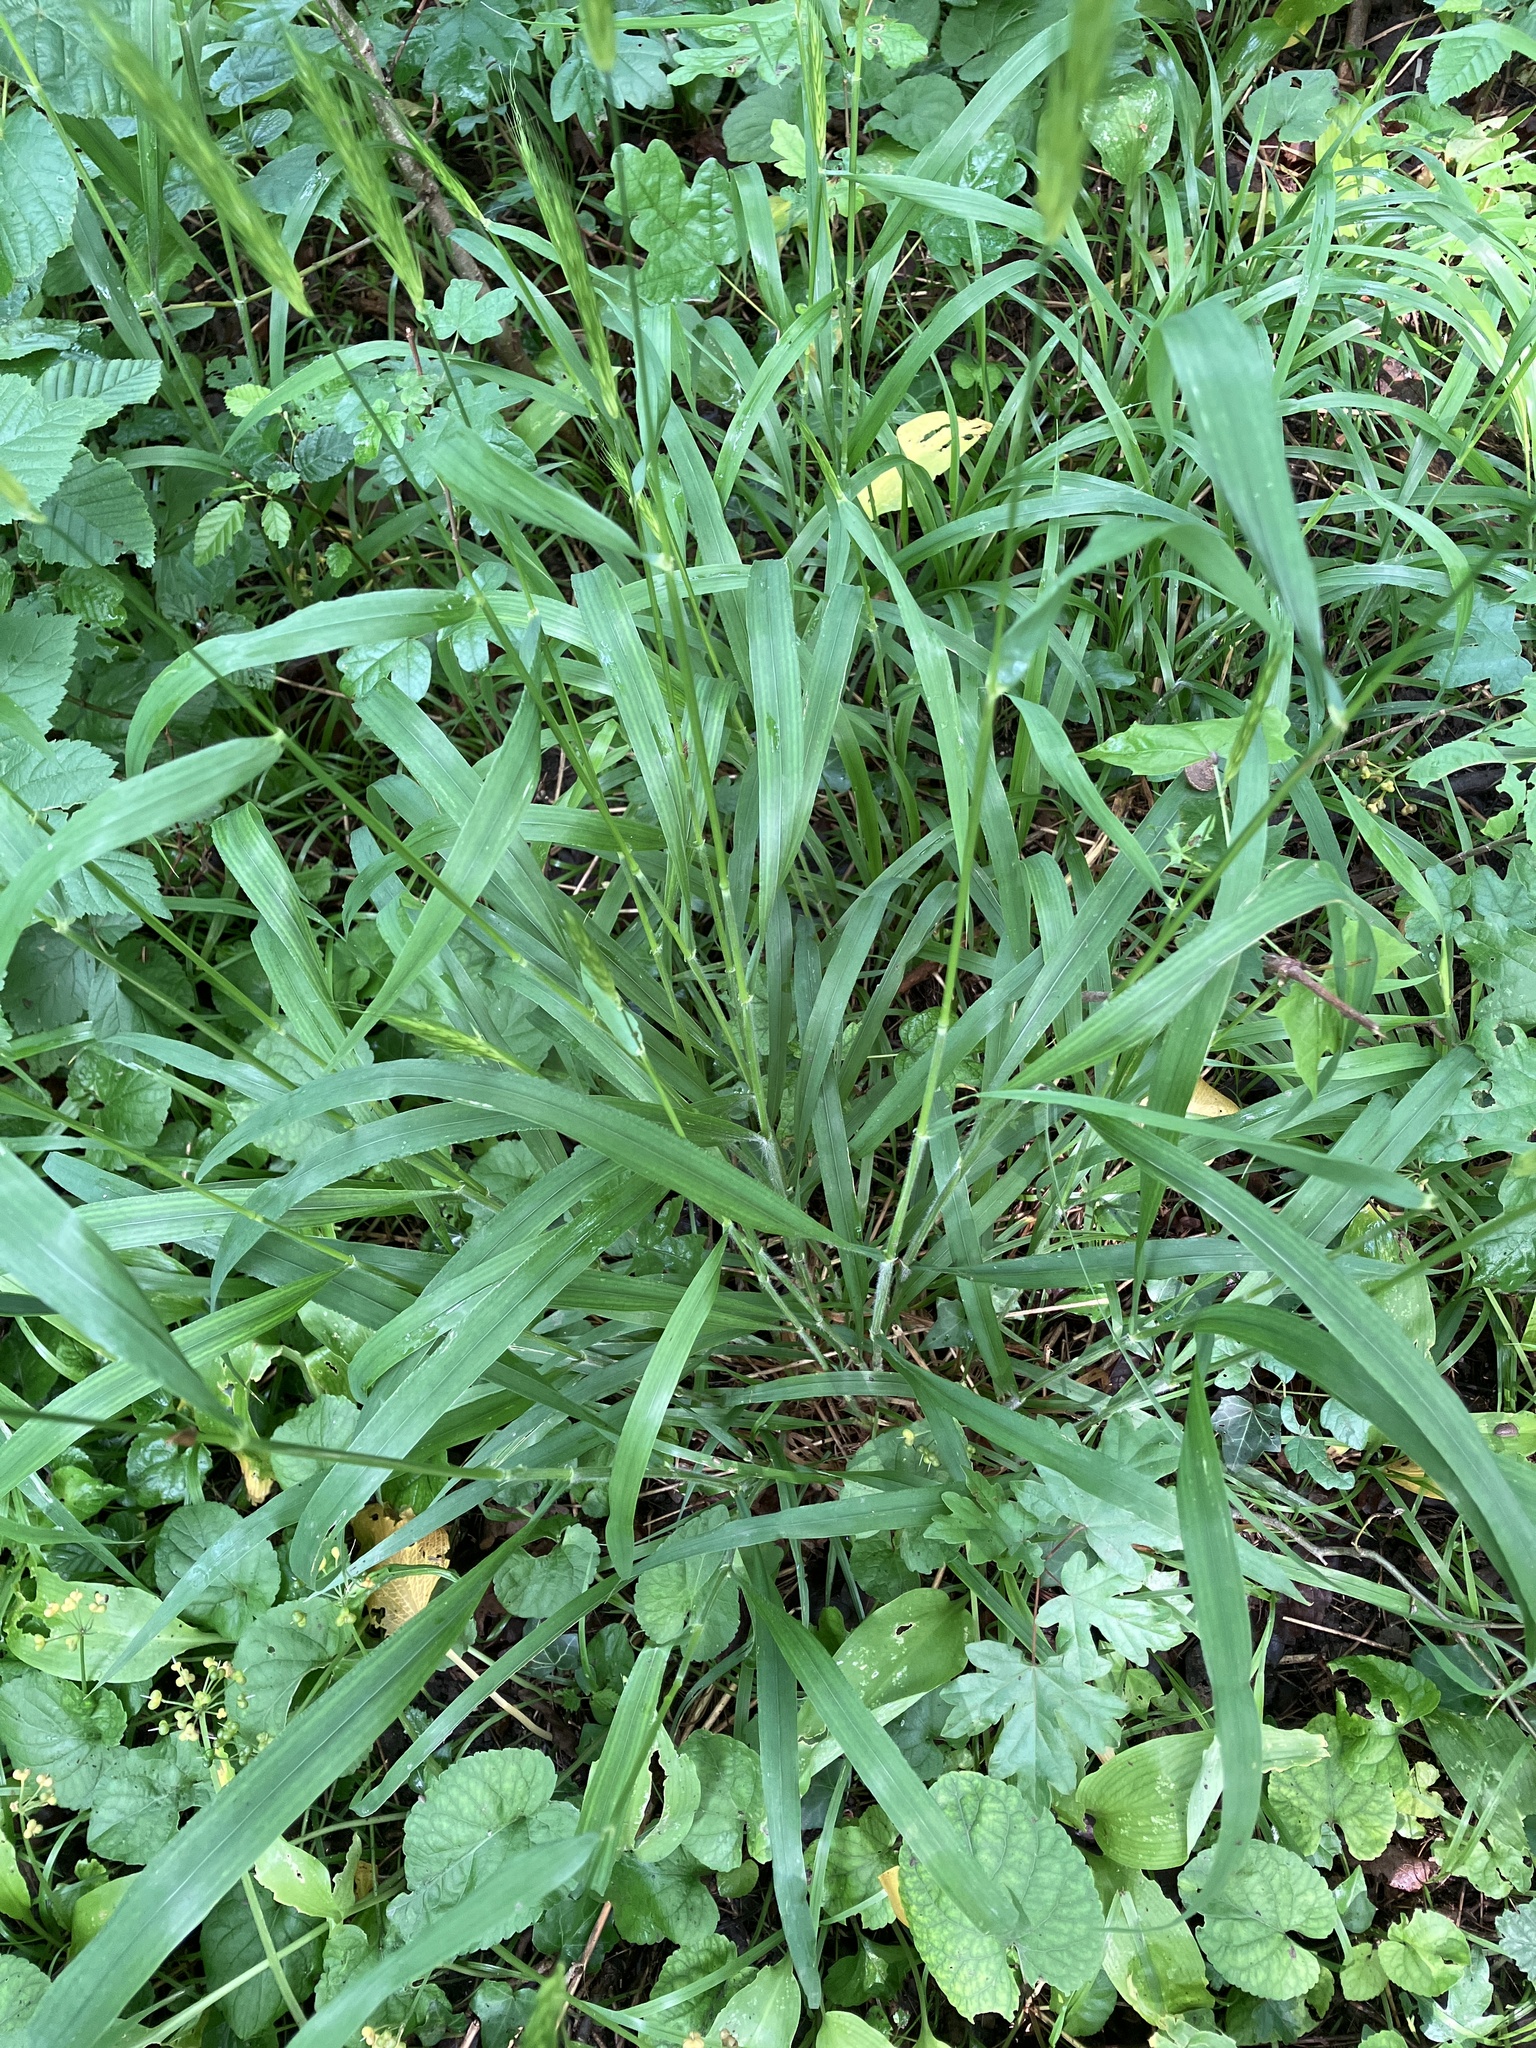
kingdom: Plantae
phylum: Tracheophyta
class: Liliopsida
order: Poales
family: Poaceae
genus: Hordelymus
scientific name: Hordelymus europaeus
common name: Wood-barley
